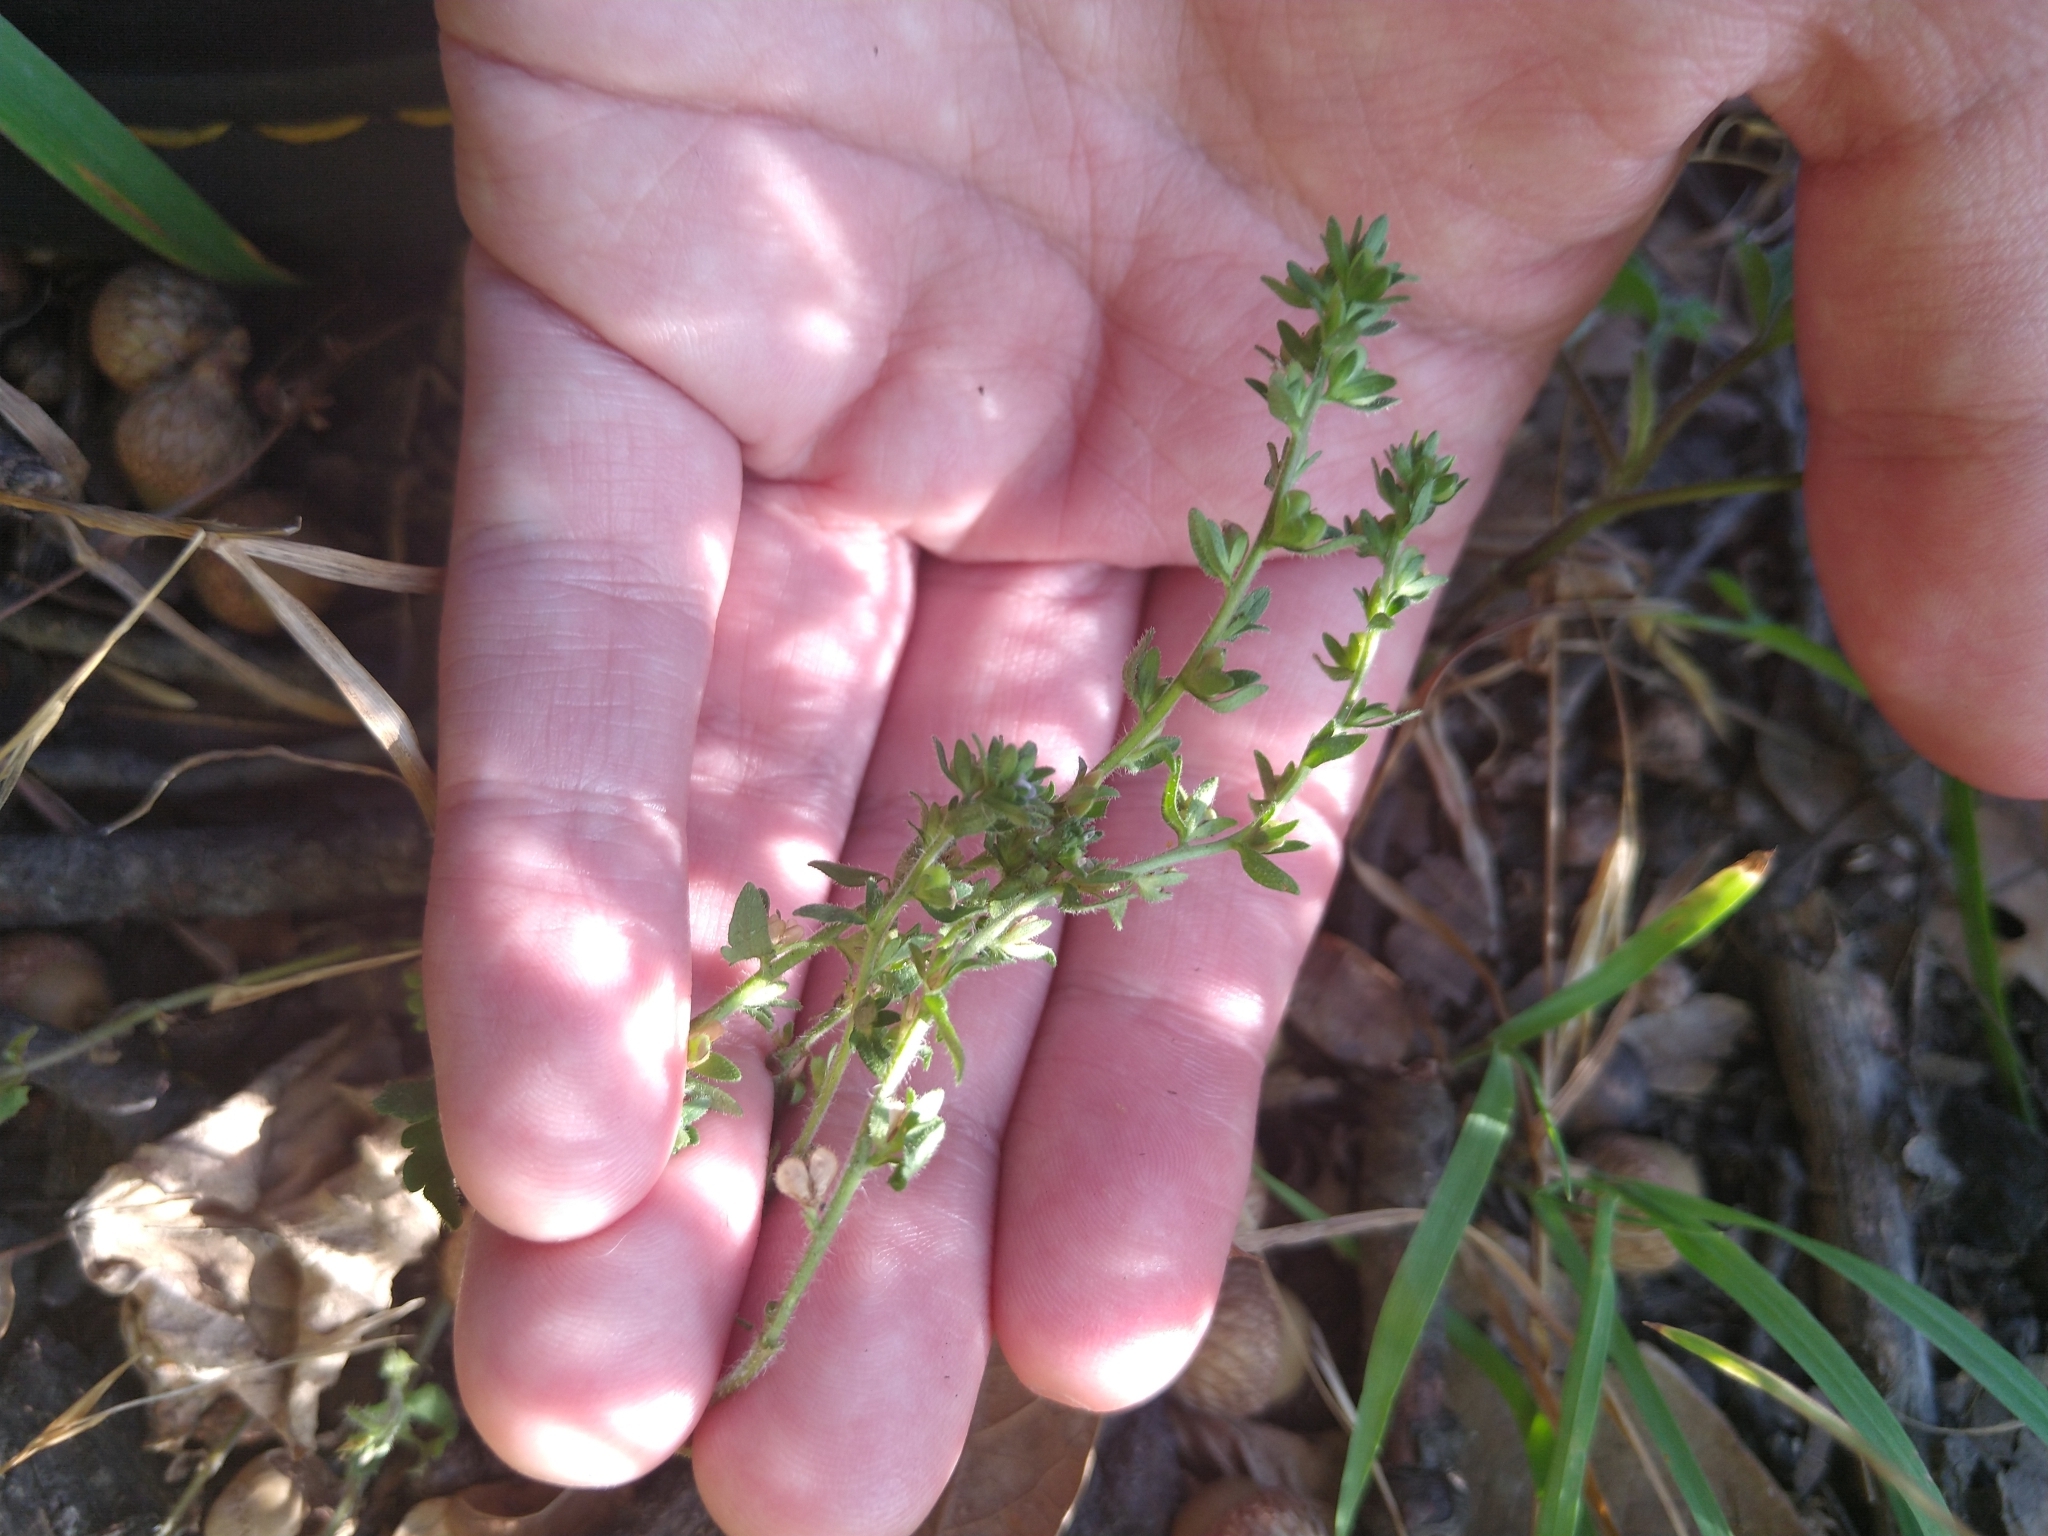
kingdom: Plantae
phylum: Tracheophyta
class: Magnoliopsida
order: Lamiales
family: Plantaginaceae
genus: Veronica
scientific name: Veronica arvensis
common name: Corn speedwell
